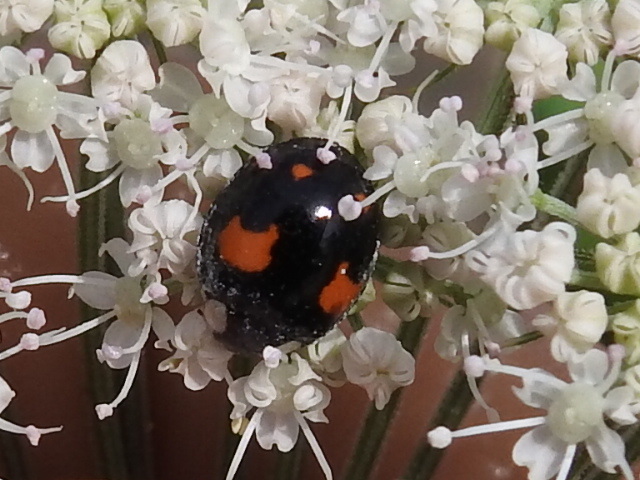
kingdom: Animalia
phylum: Arthropoda
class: Insecta
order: Coleoptera
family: Coccinellidae
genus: Harmonia
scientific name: Harmonia axyridis
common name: Harlequin ladybird
